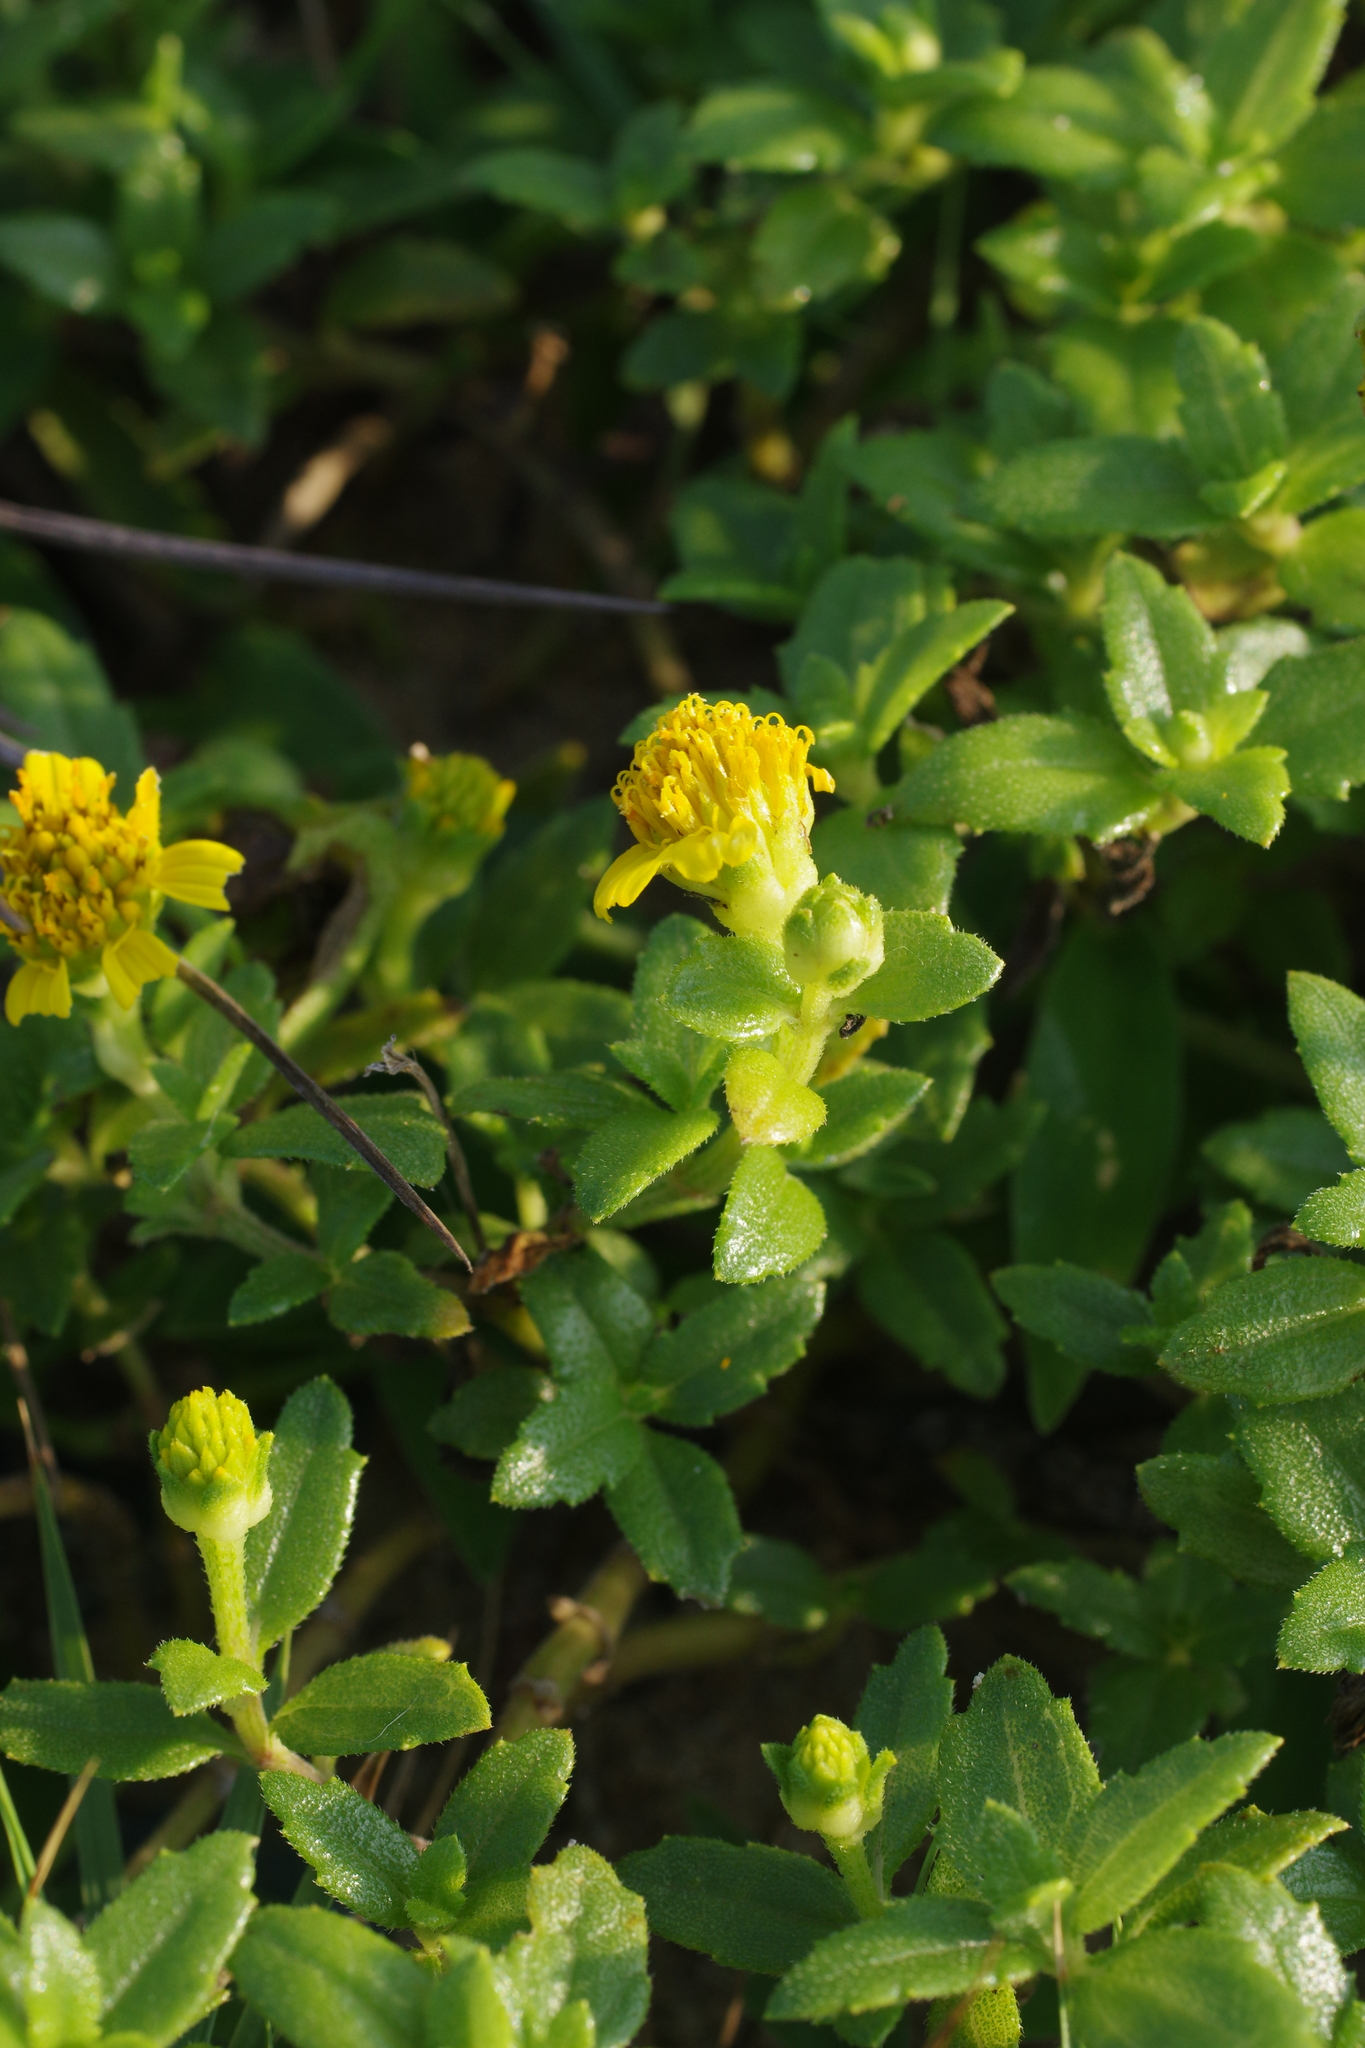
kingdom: Plantae
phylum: Tracheophyta
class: Magnoliopsida
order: Asterales
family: Asteraceae
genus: Melanthera
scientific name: Melanthera prostrata
